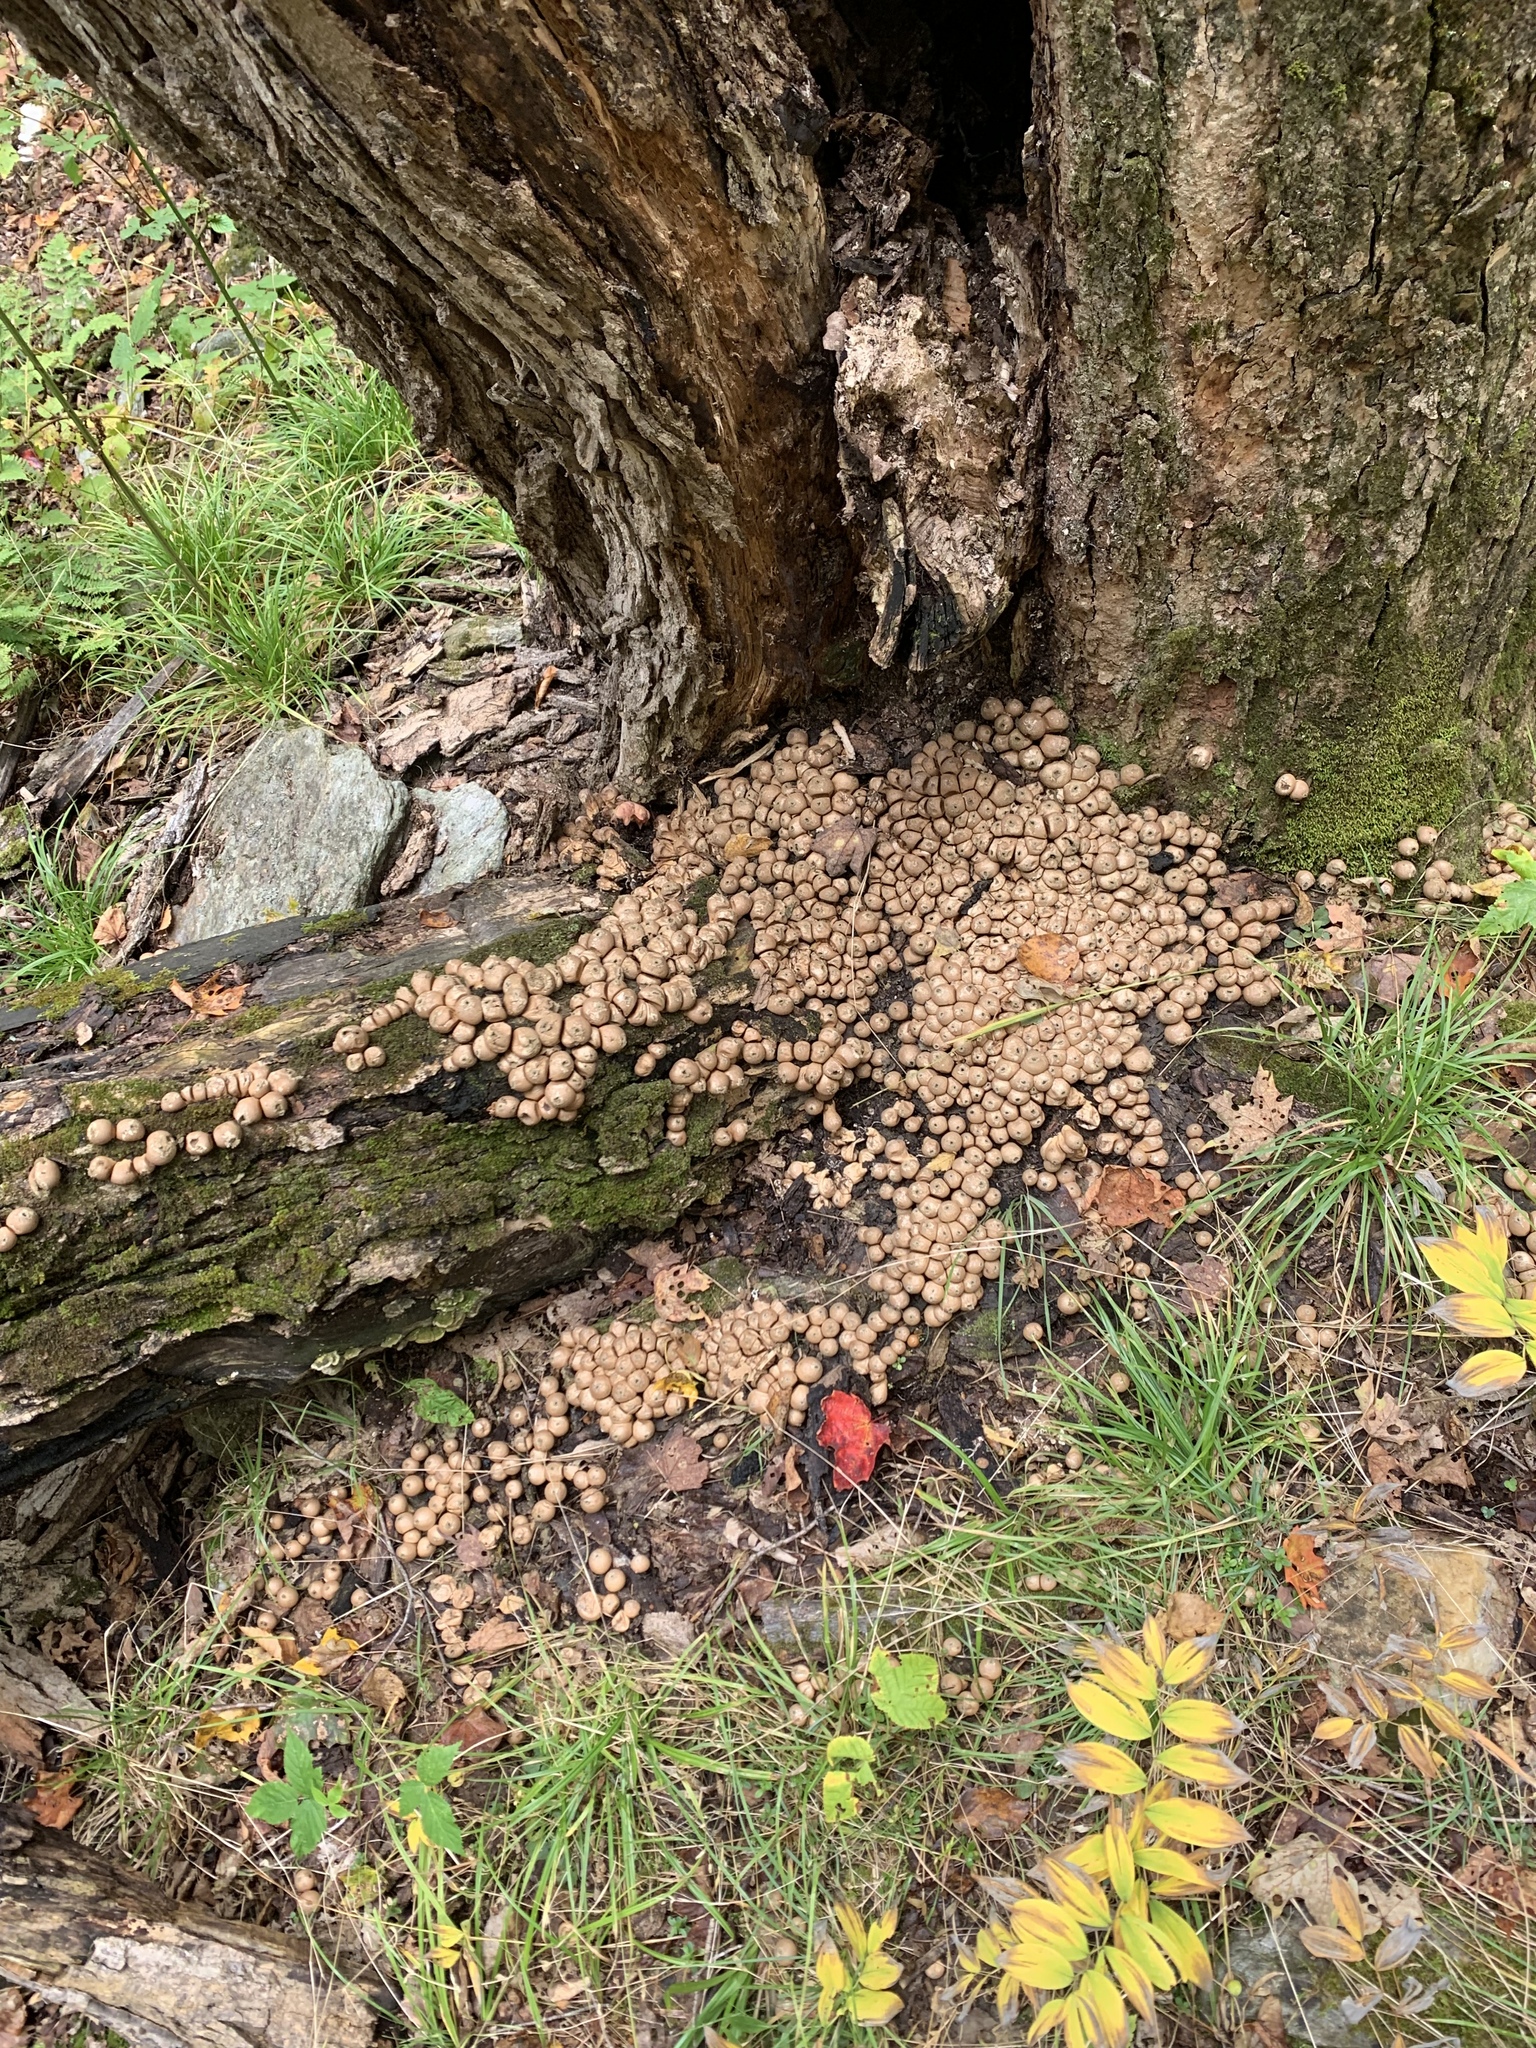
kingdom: Fungi
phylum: Basidiomycota
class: Agaricomycetes
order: Agaricales
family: Lycoperdaceae
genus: Apioperdon
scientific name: Apioperdon pyriforme
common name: Pear-shaped puffball
